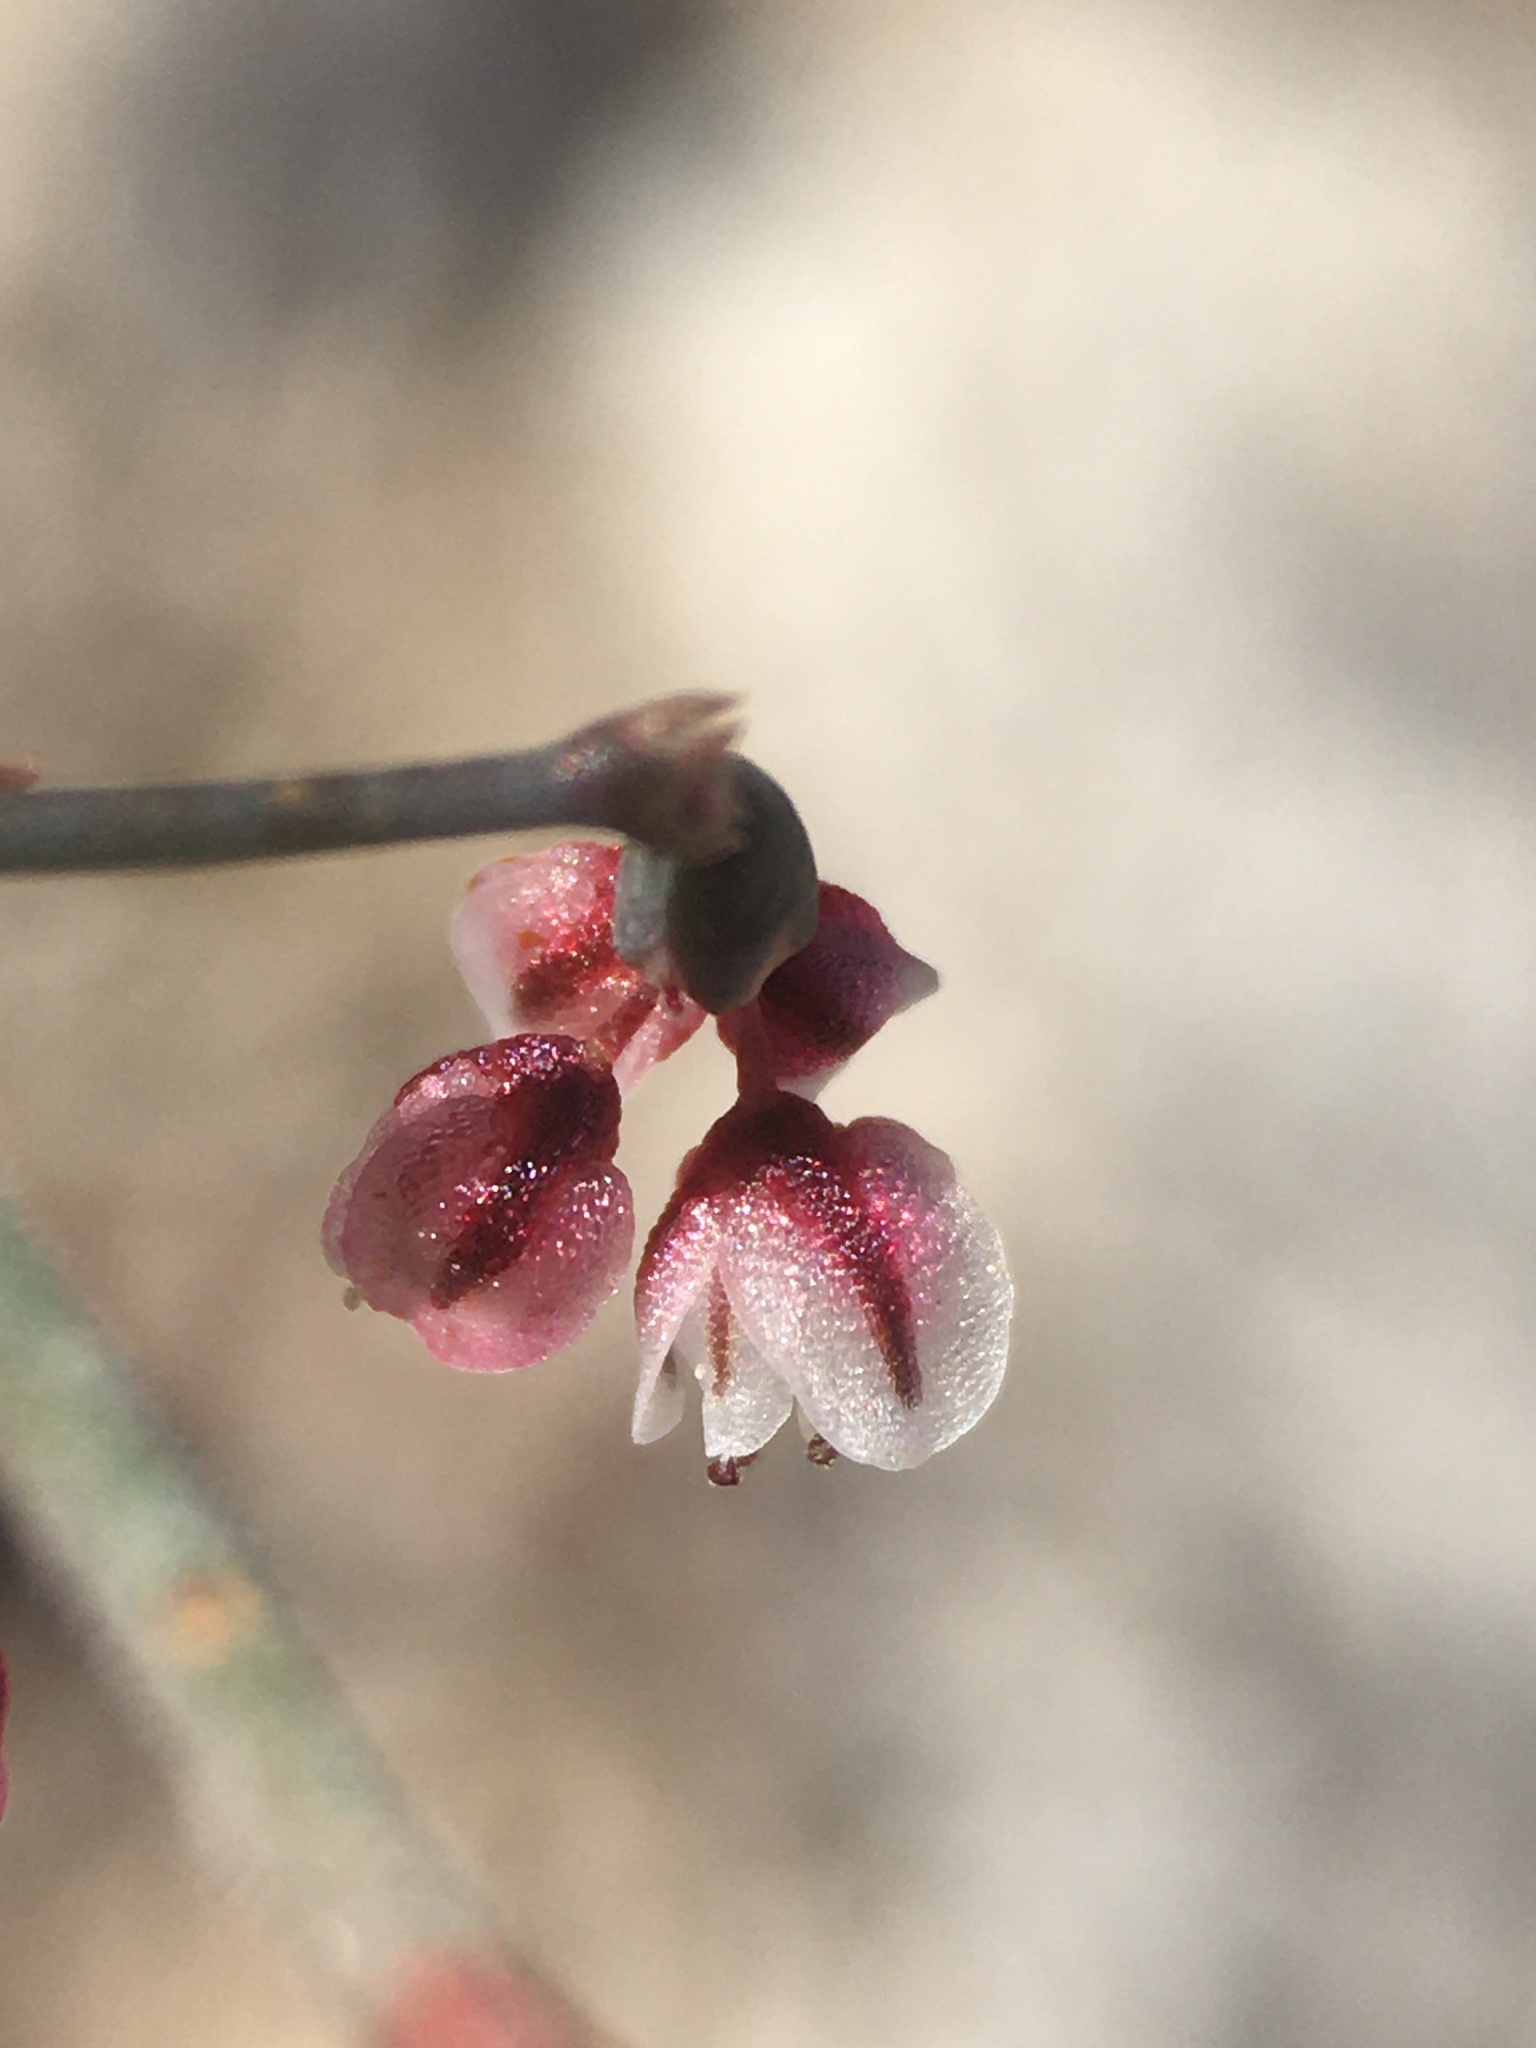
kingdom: Plantae
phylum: Tracheophyta
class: Magnoliopsida
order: Caryophyllales
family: Polygonaceae
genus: Eriogonum
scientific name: Eriogonum deflexum
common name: Skeleton-weed
